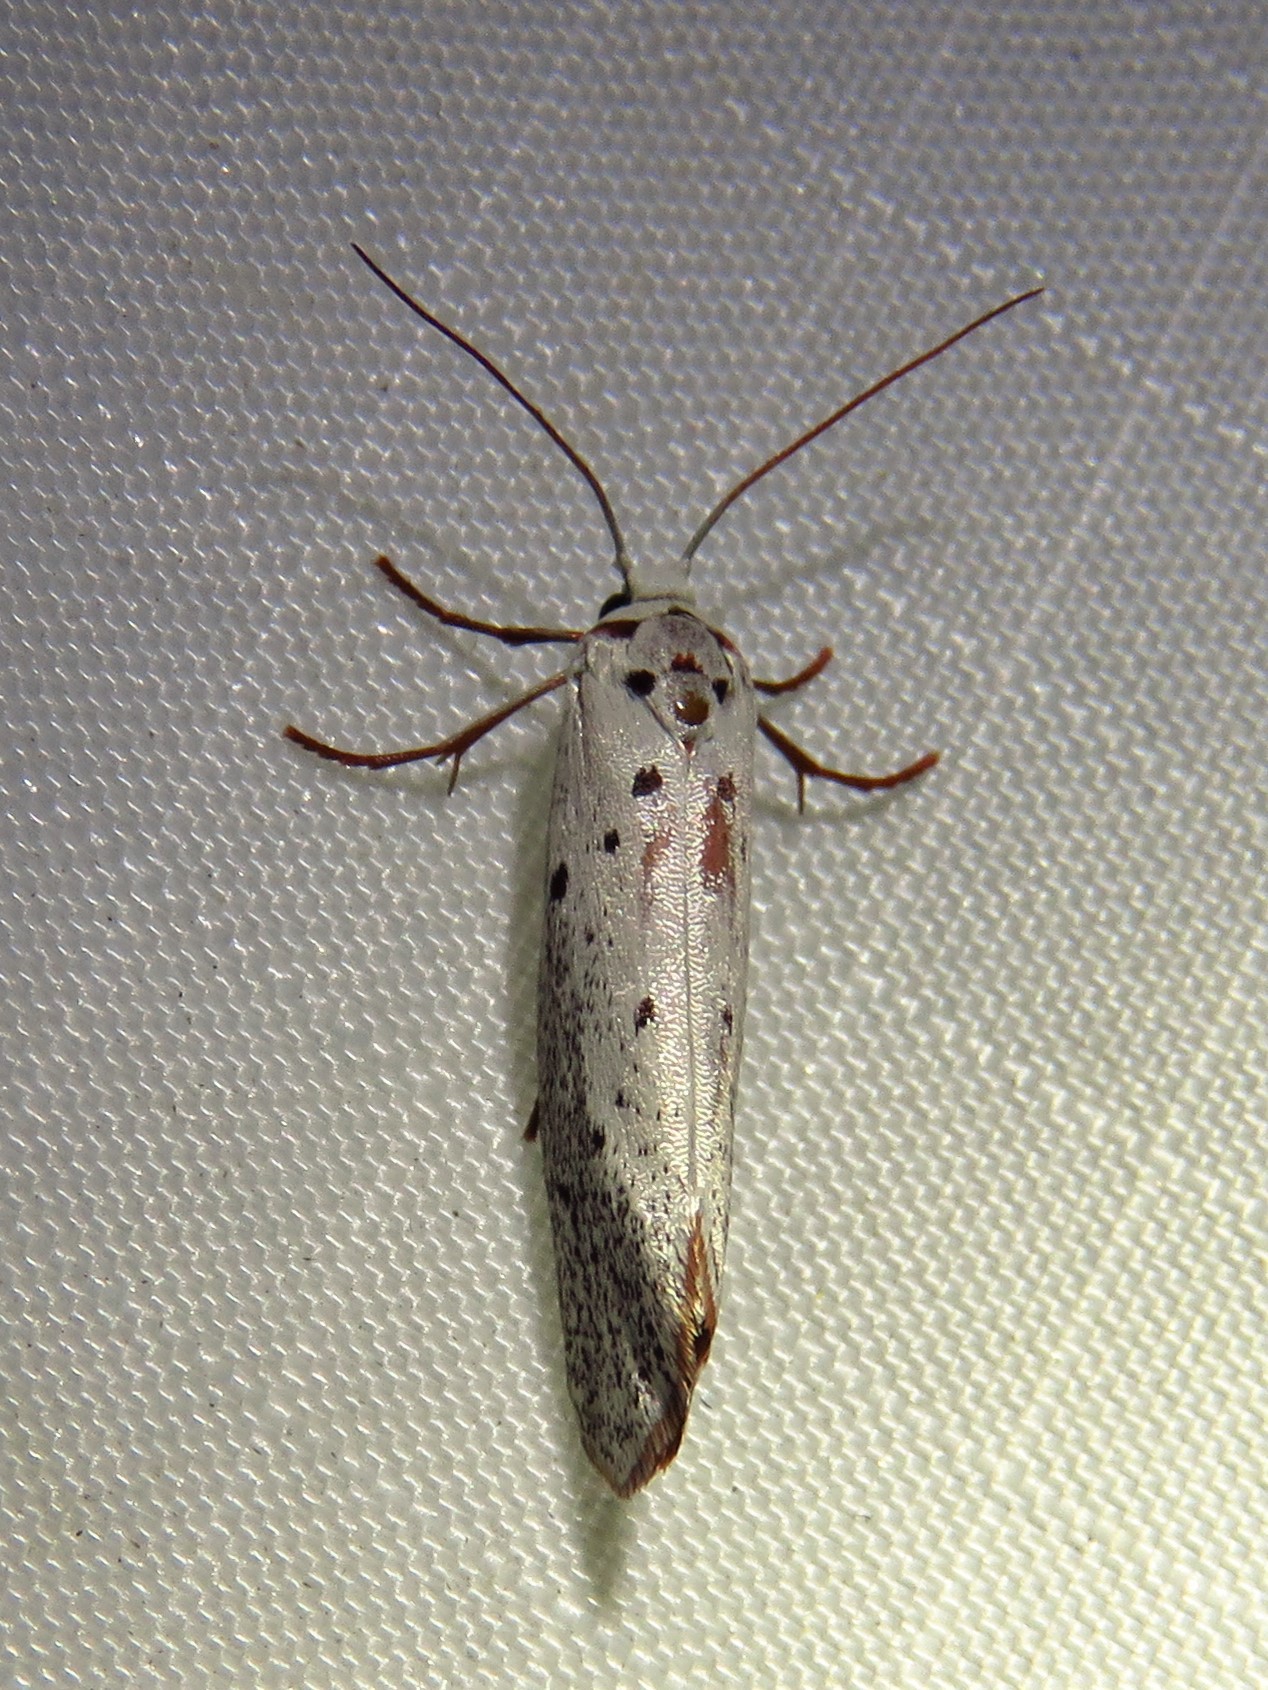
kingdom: Animalia
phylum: Arthropoda
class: Insecta
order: Lepidoptera
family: Lacturidae
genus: Lactura
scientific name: Lactura
